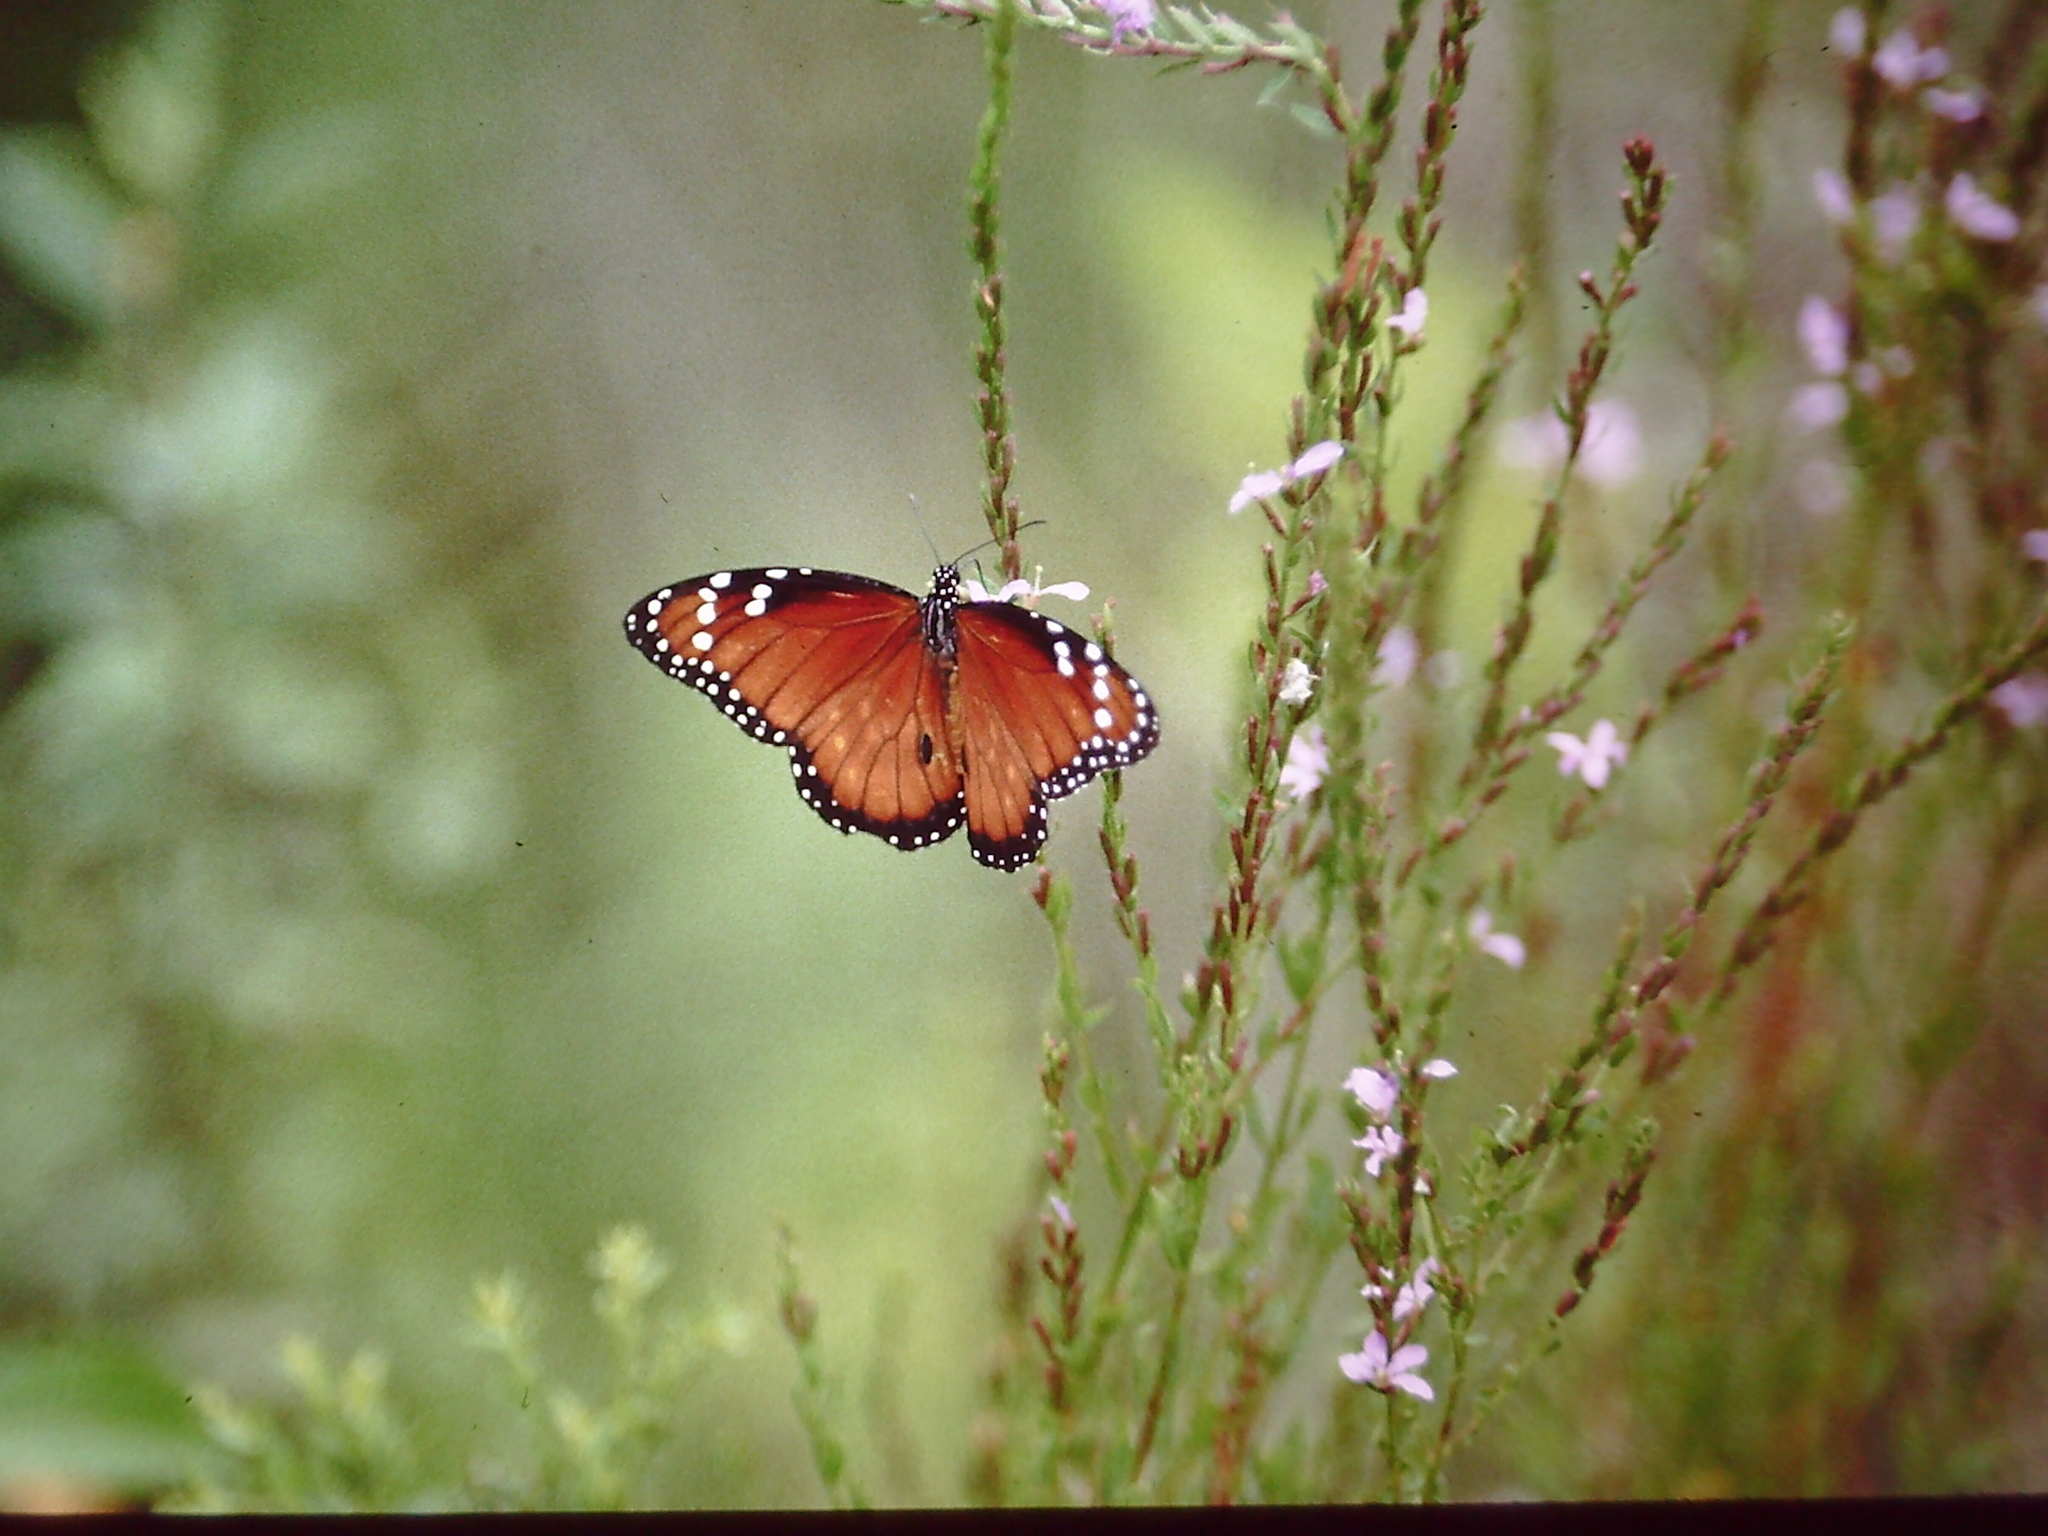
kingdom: Animalia
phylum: Arthropoda
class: Insecta
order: Lepidoptera
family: Nymphalidae
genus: Danaus
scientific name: Danaus eresimus
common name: Soldier
